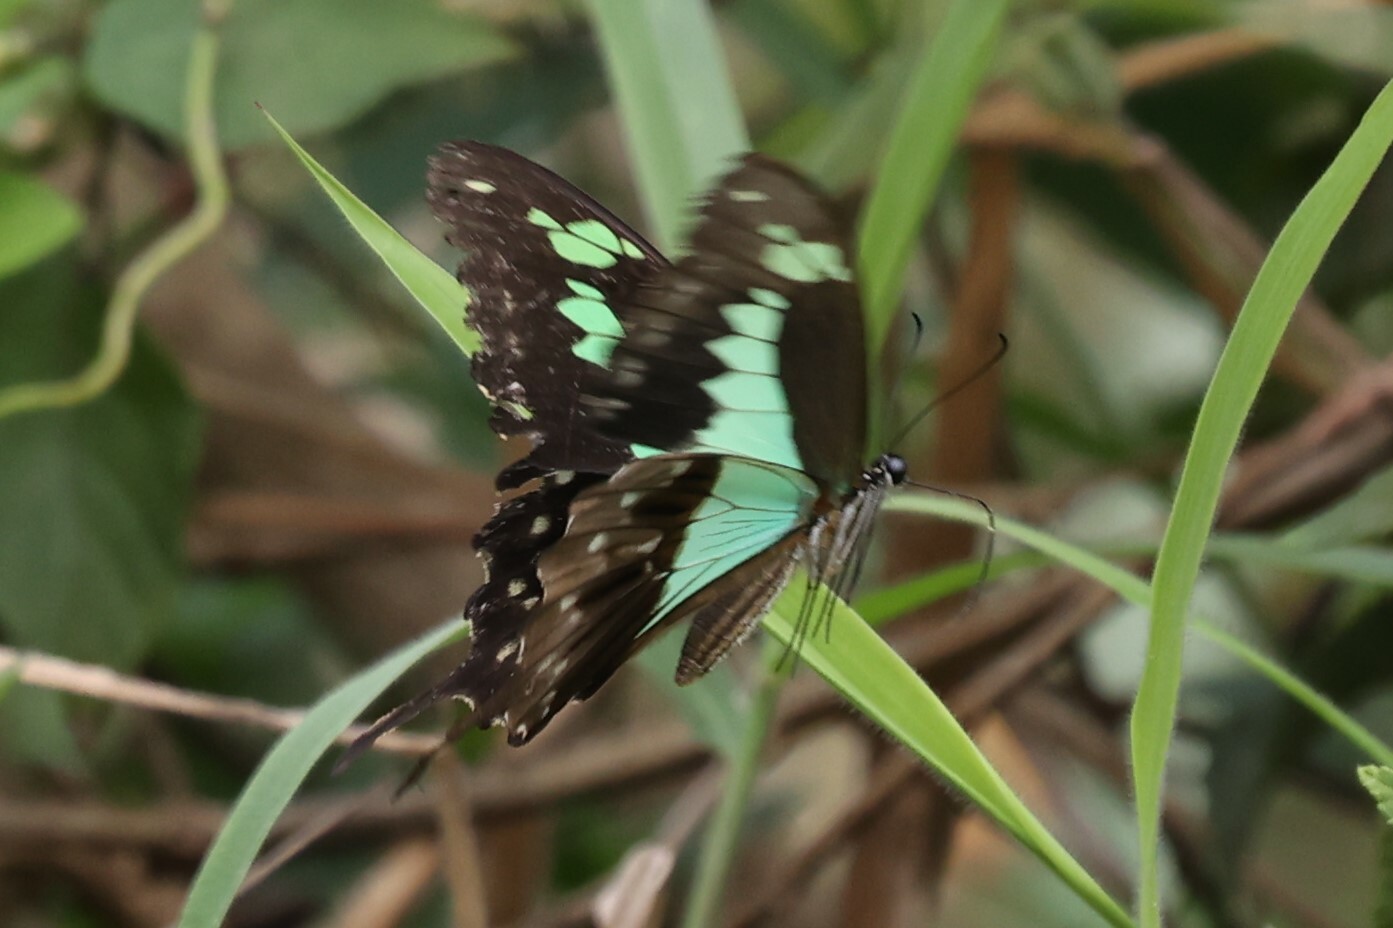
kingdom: Animalia
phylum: Arthropoda
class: Insecta
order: Lepidoptera
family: Papilionidae
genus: Papilio
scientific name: Papilio phorcas
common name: Apple-green swallowtail
